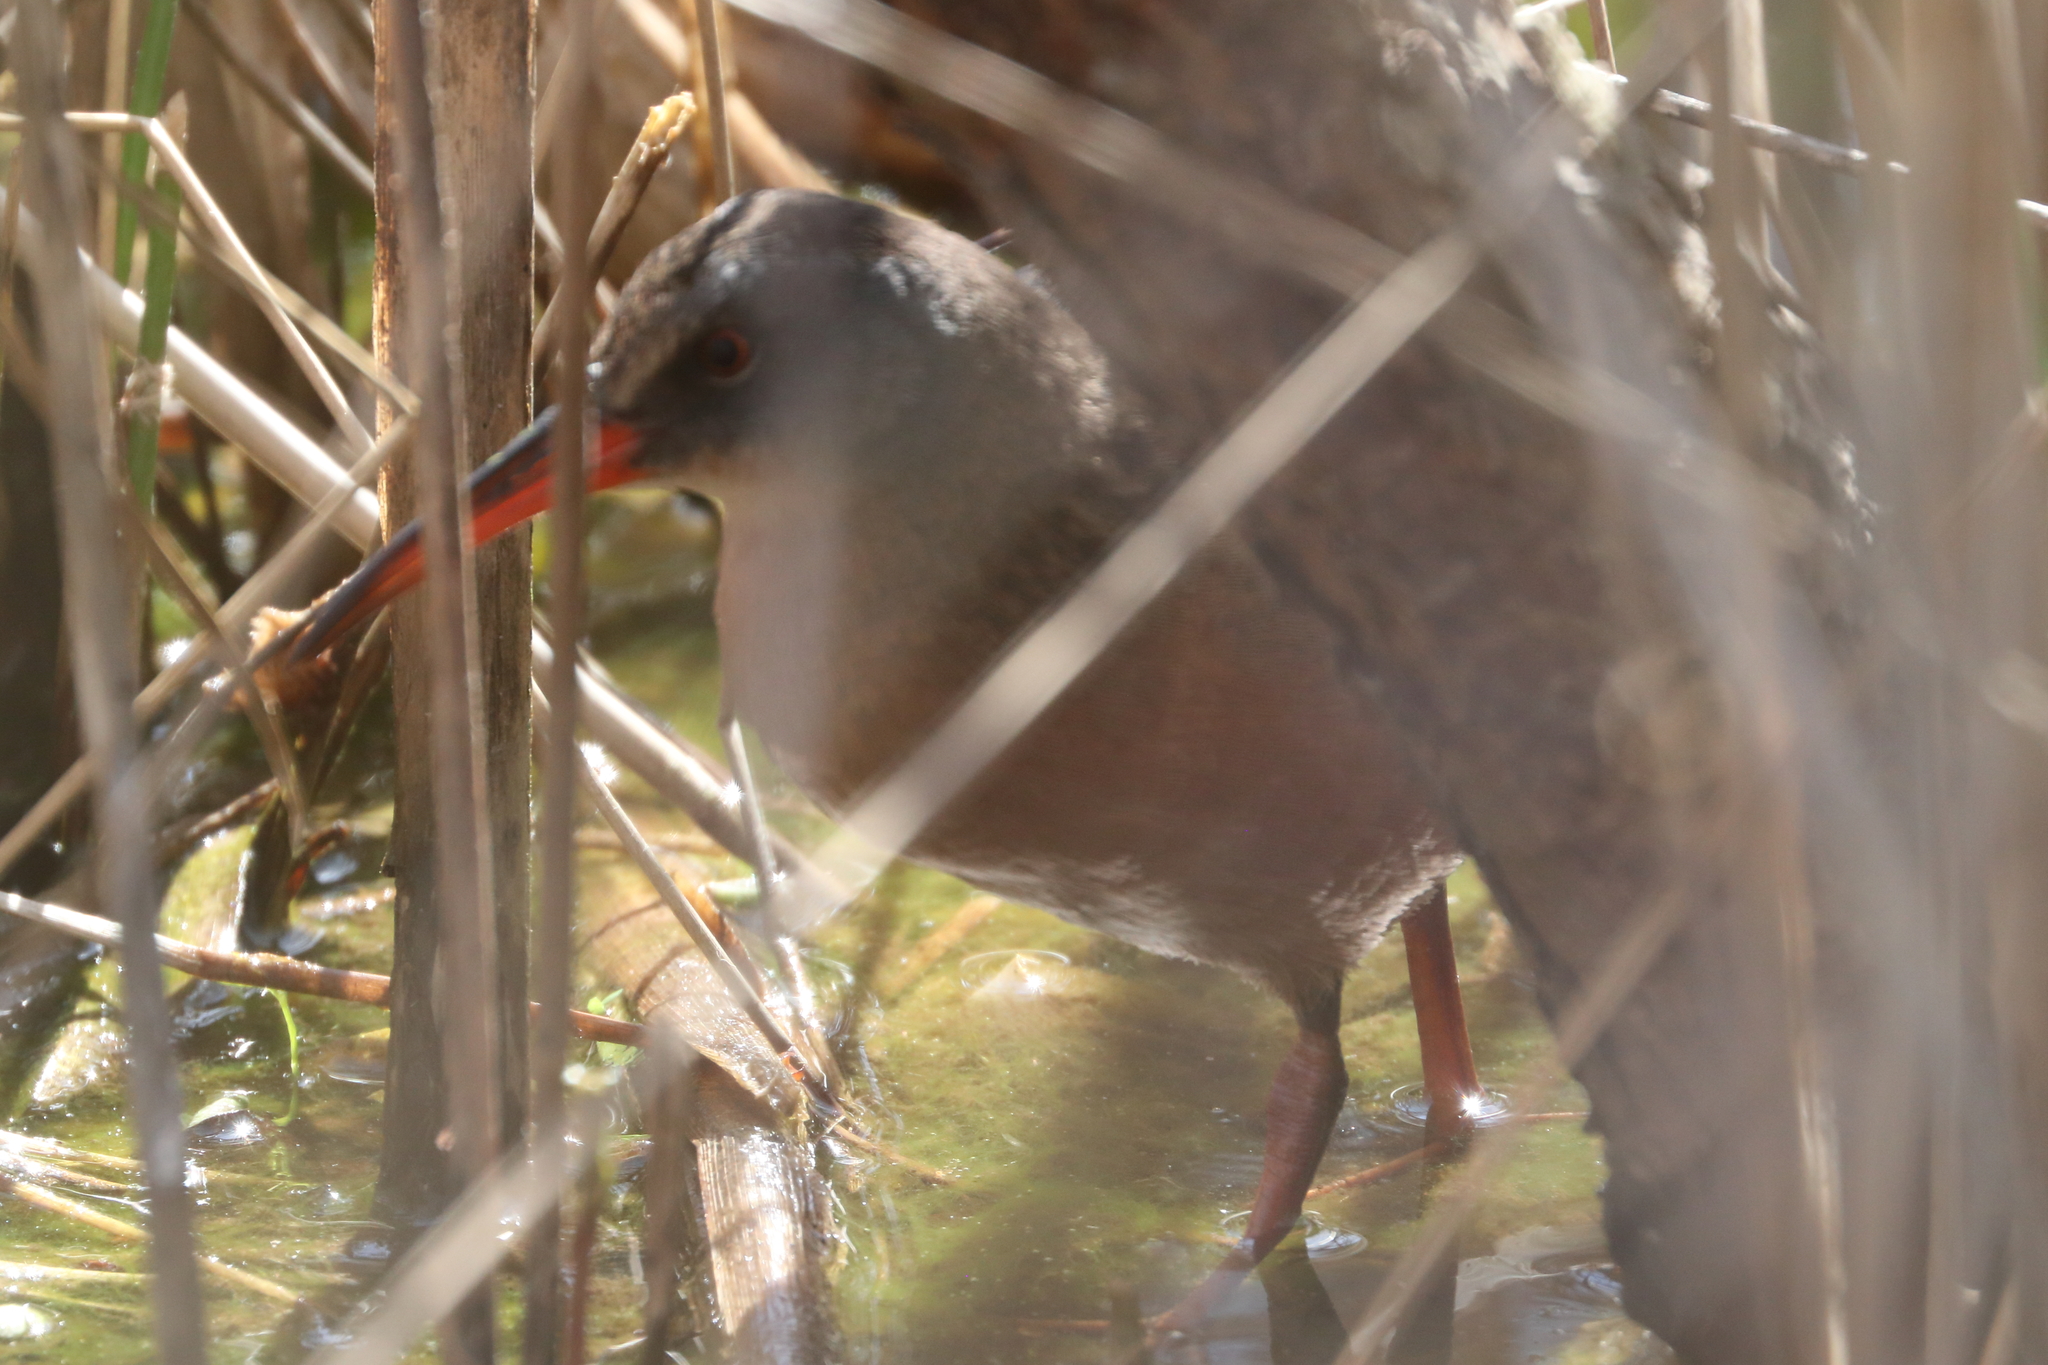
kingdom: Animalia
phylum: Chordata
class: Aves
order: Gruiformes
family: Rallidae
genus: Rallus
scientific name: Rallus limicola
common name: Virginia rail
